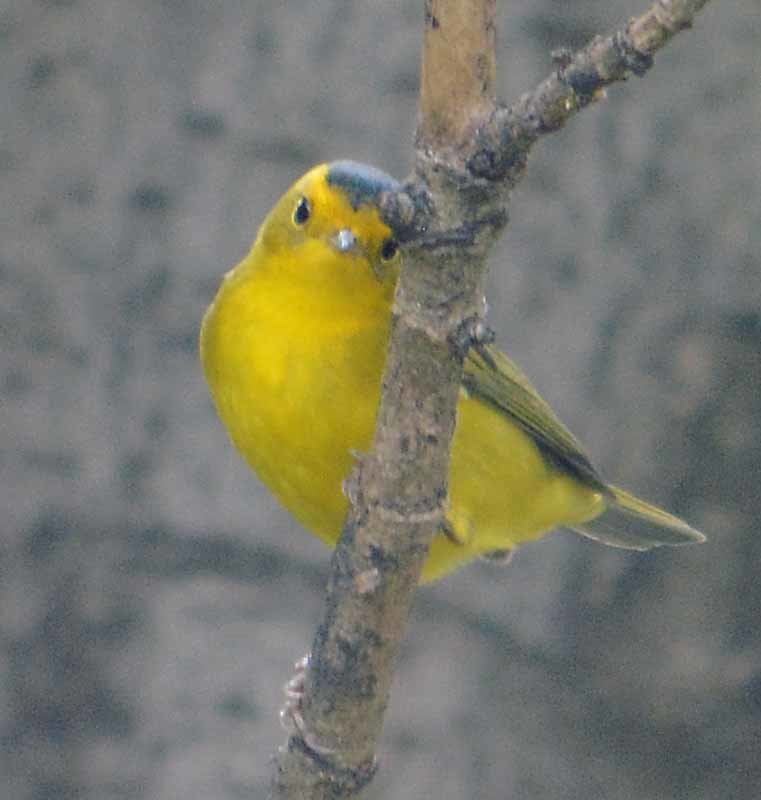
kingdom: Animalia
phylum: Chordata
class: Aves
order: Passeriformes
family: Parulidae
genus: Cardellina
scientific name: Cardellina pusilla
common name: Wilson's warbler
